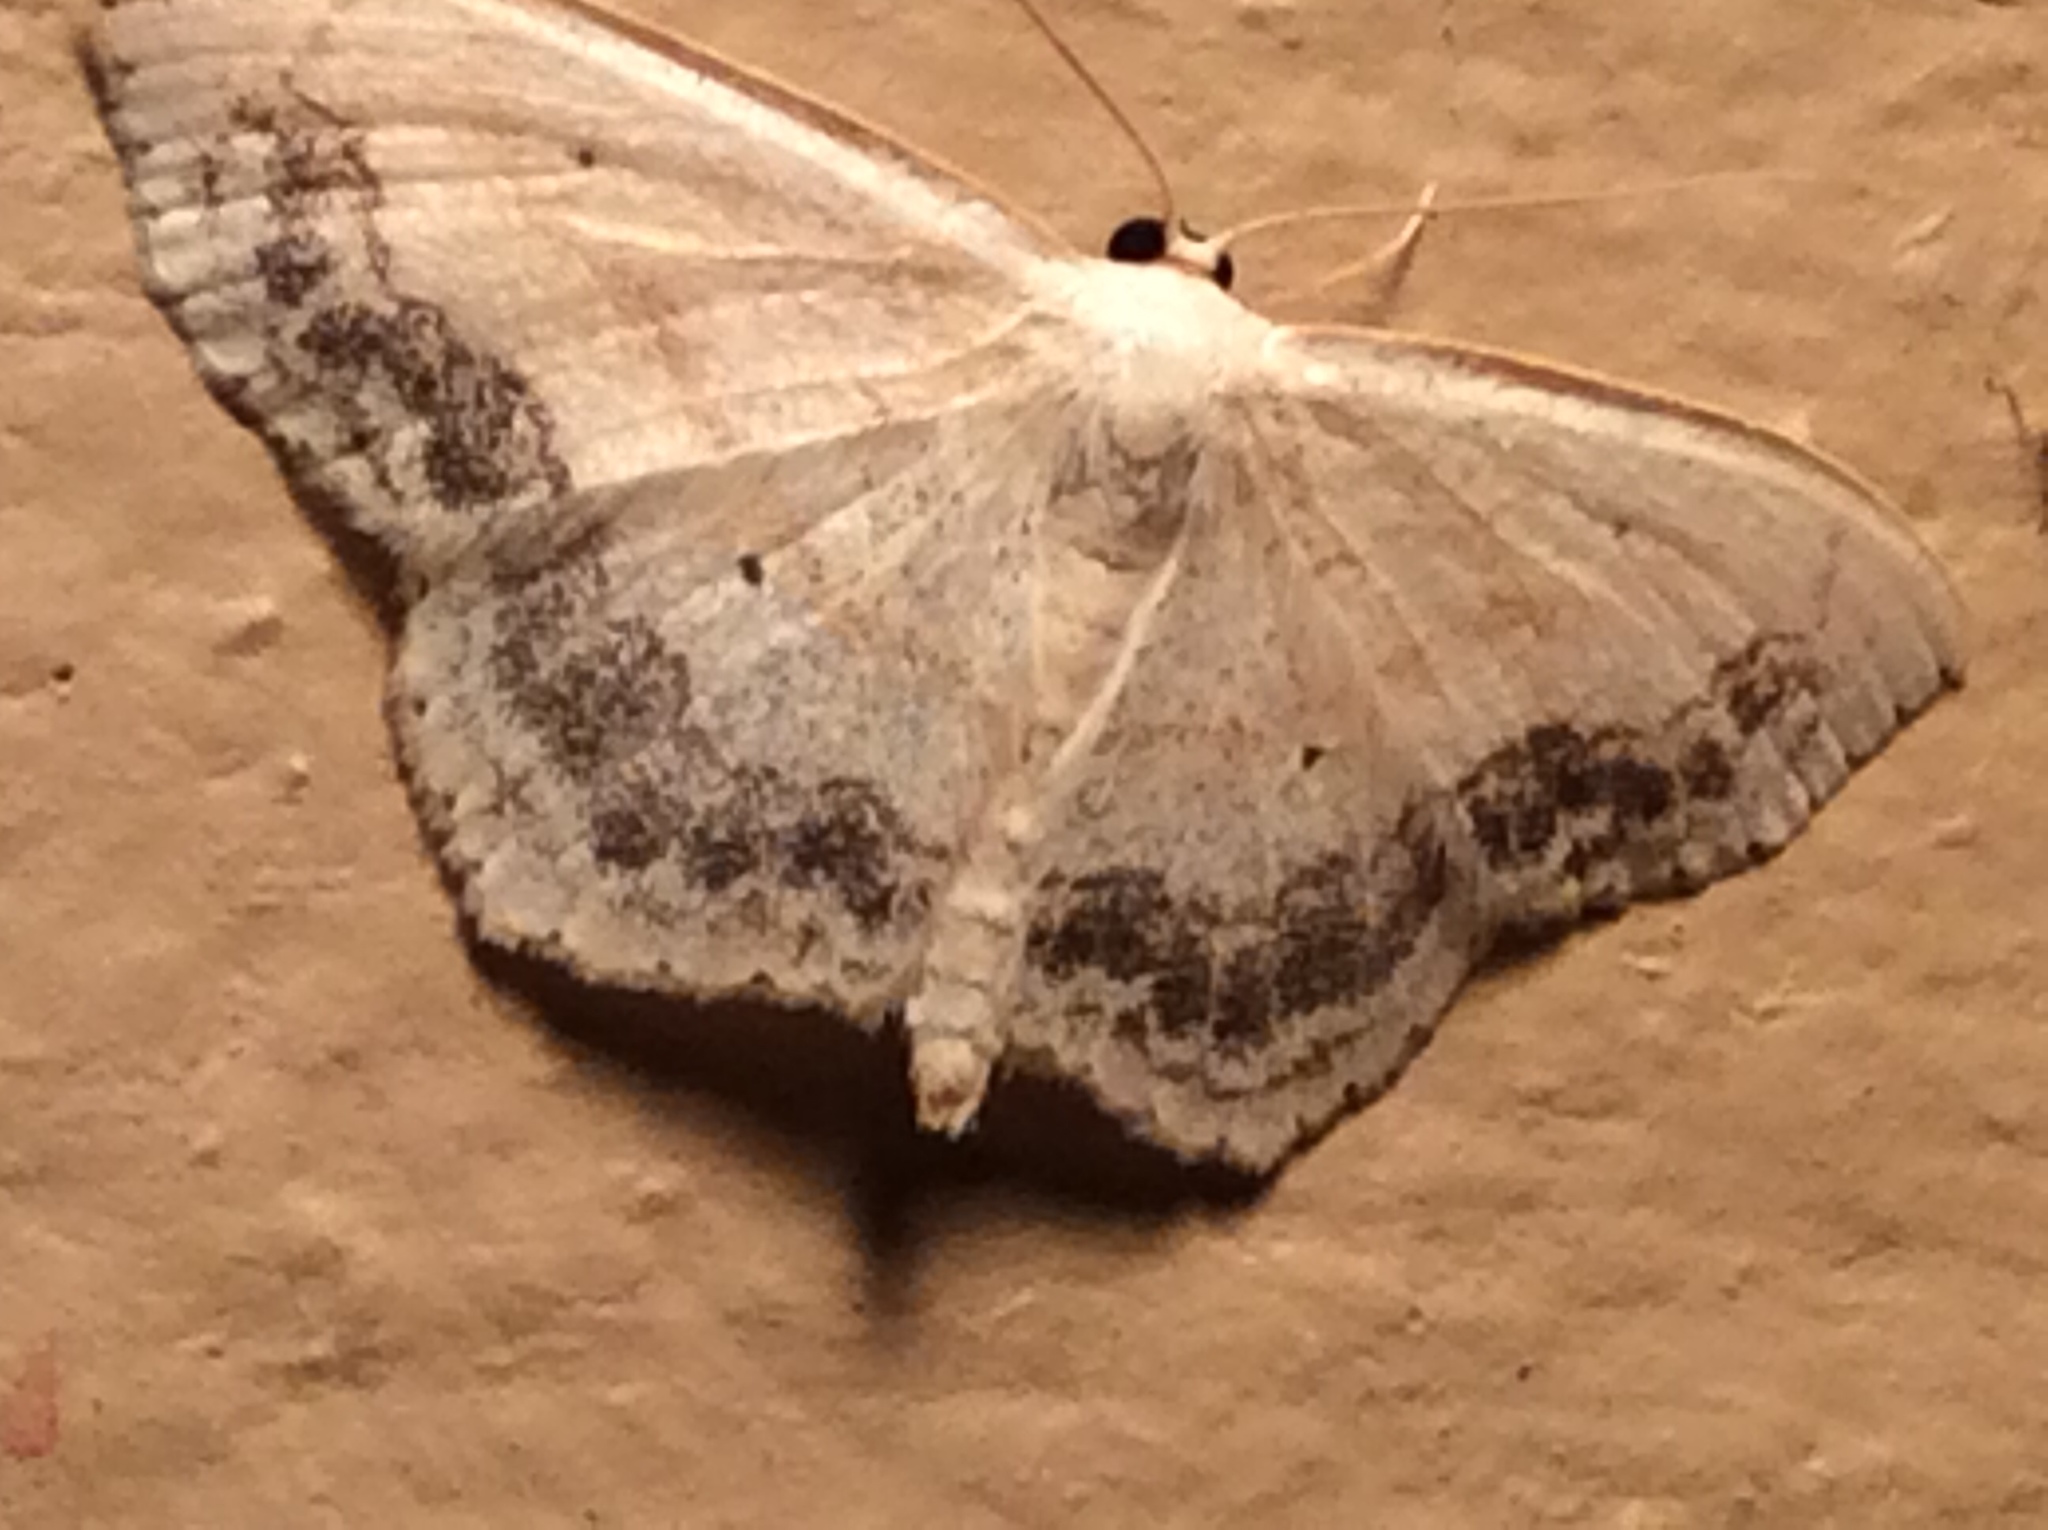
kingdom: Animalia
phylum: Arthropoda
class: Insecta
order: Lepidoptera
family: Geometridae
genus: Scopula
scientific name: Scopula limboundata
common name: Large lace border
